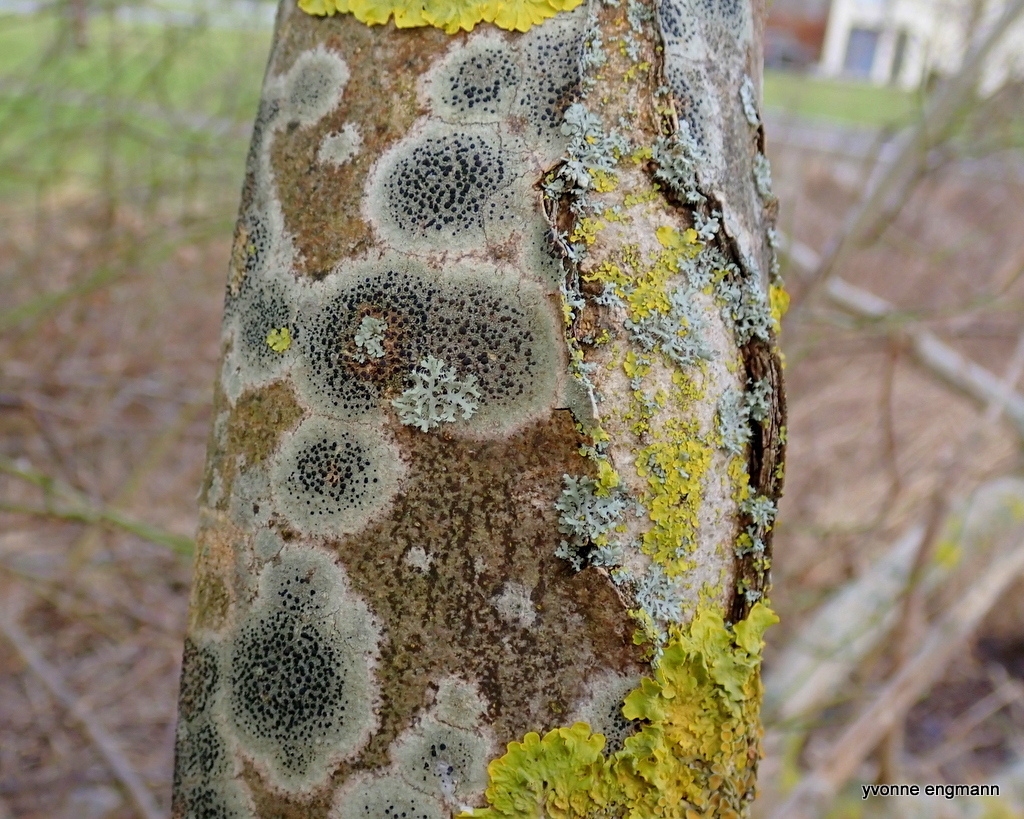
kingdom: Fungi
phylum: Ascomycota
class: Lecanoromycetes
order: Lecanorales
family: Lecanoraceae
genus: Lecidella
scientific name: Lecidella elaeochroma
